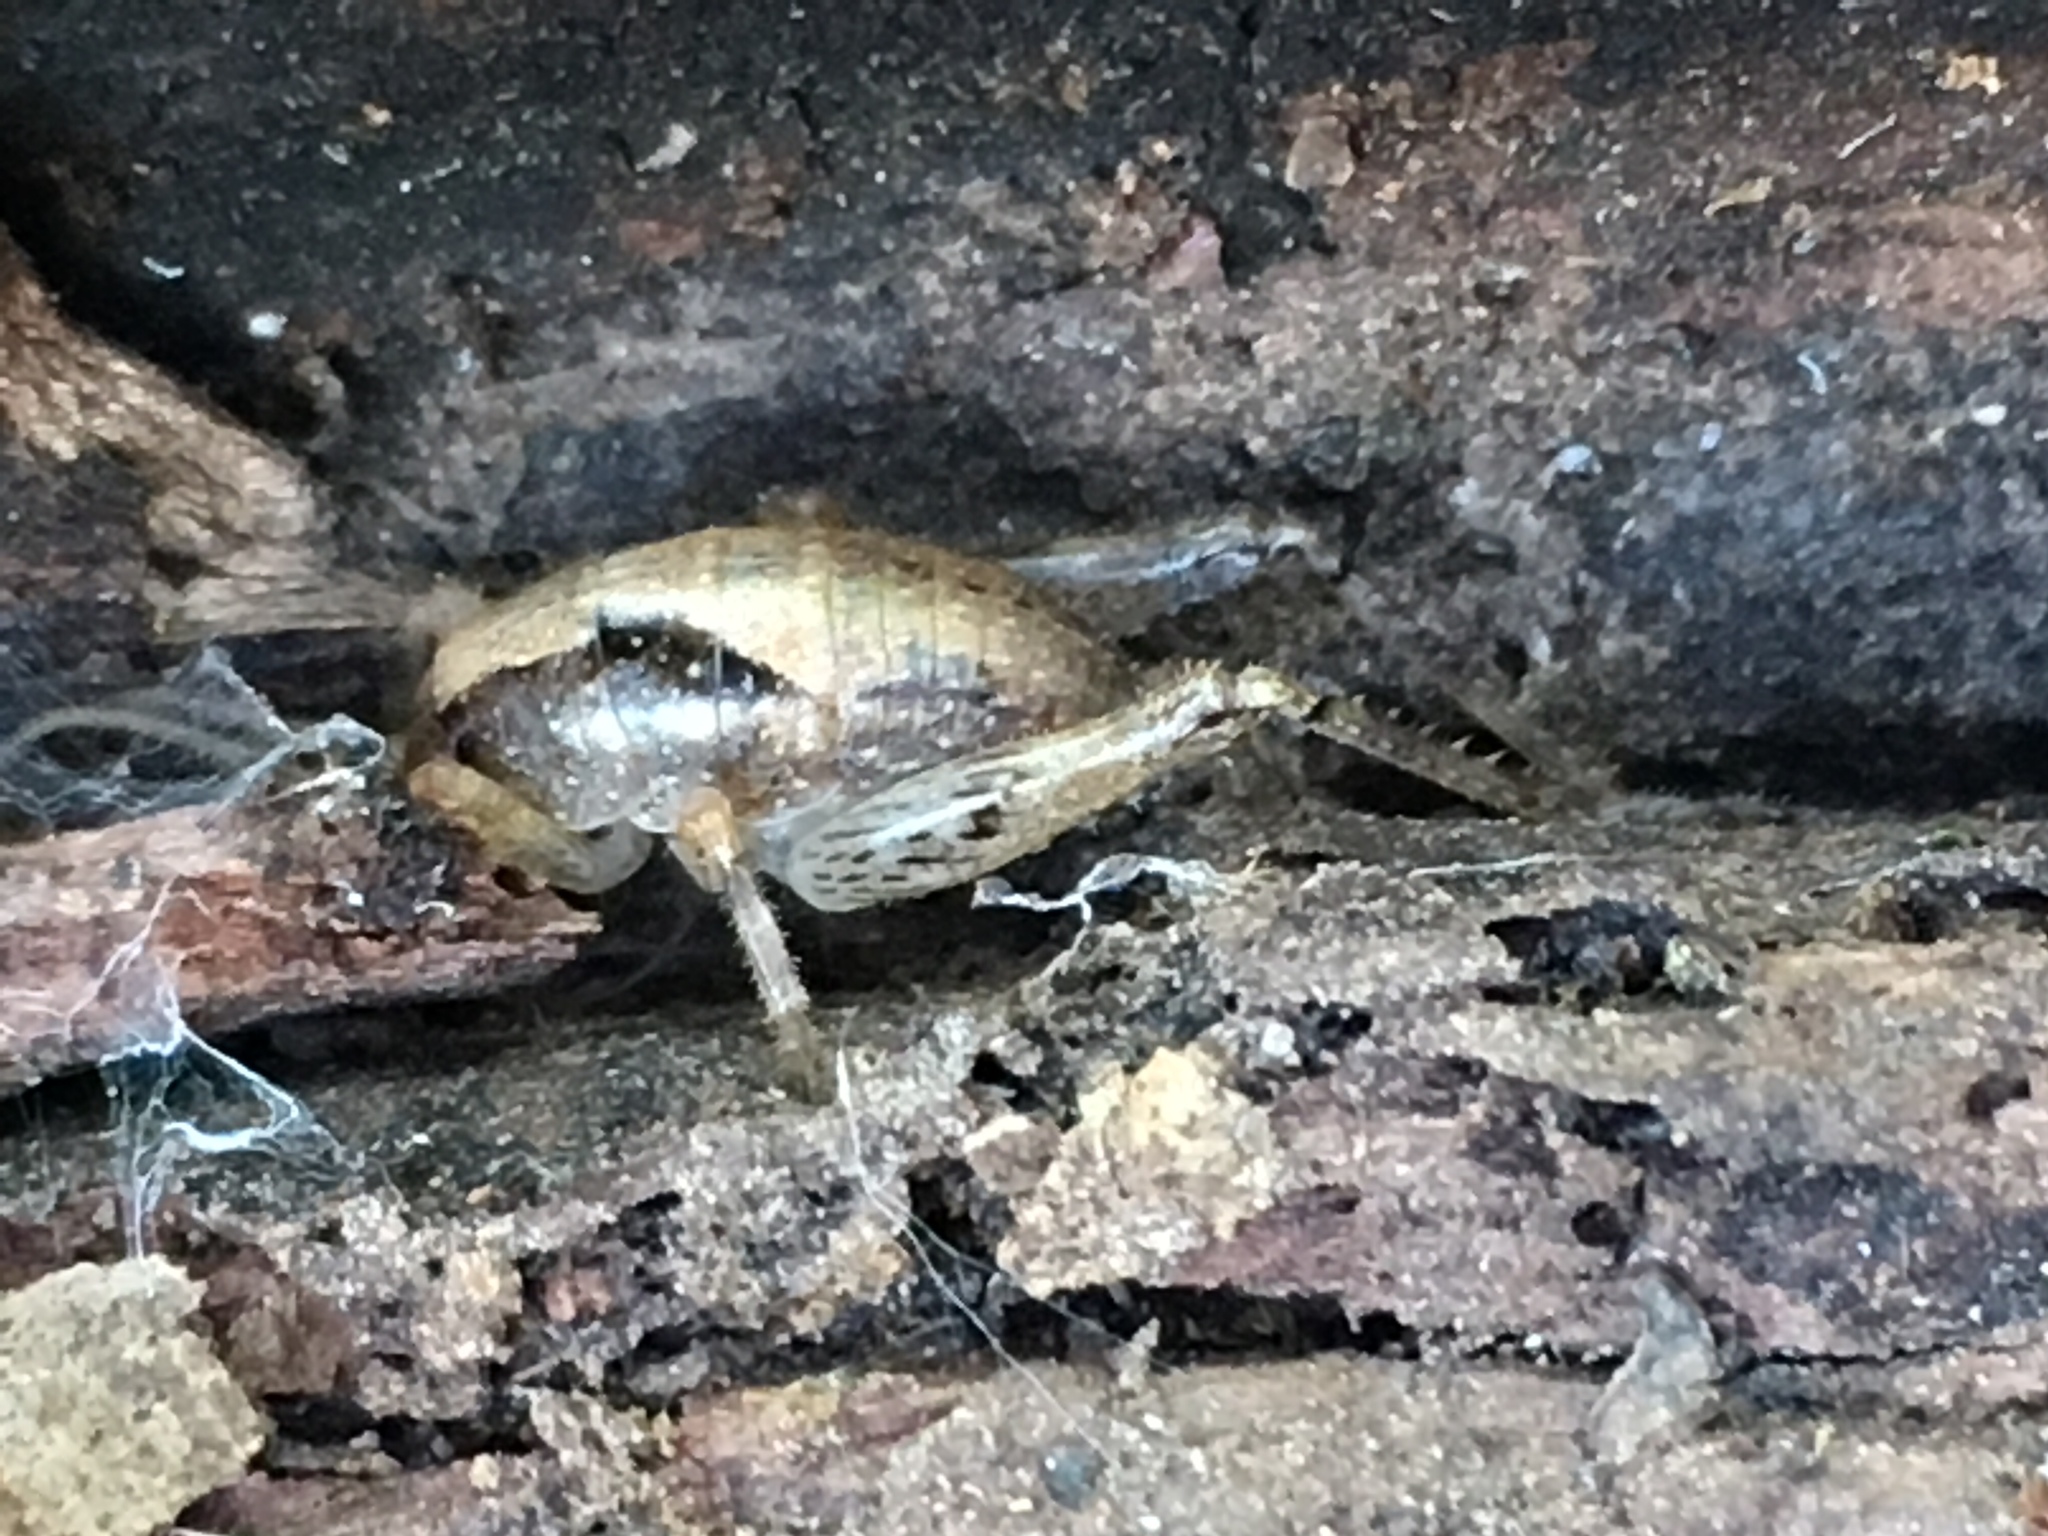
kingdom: Animalia
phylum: Arthropoda
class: Insecta
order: Orthoptera
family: Rhaphidophoridae
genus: Gammarotettix
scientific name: Gammarotettix genitalis
